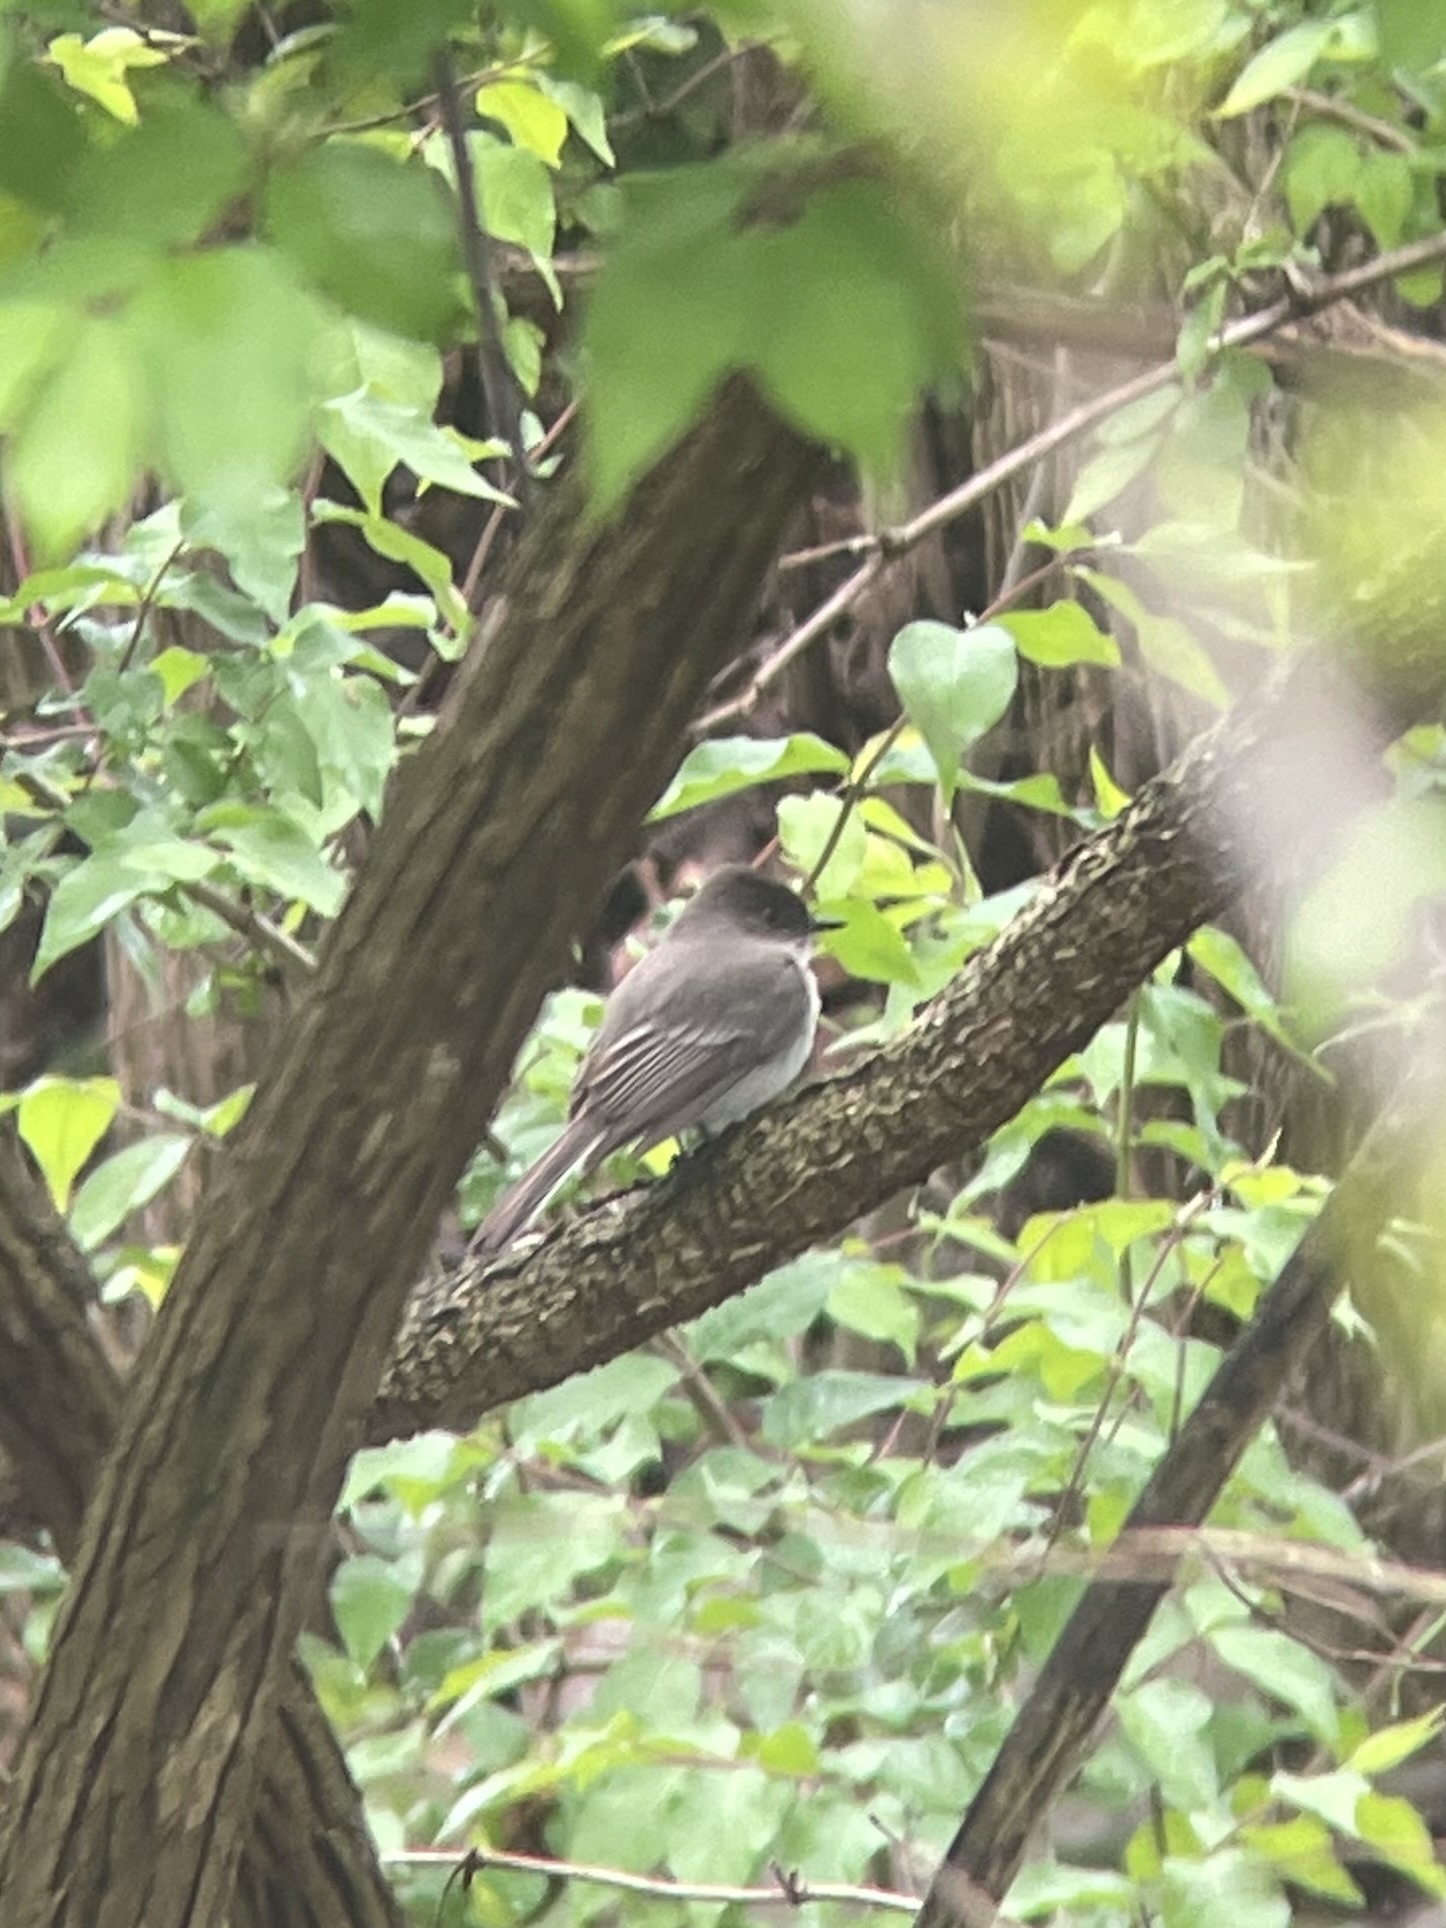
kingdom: Animalia
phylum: Chordata
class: Aves
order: Passeriformes
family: Tyrannidae
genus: Sayornis
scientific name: Sayornis phoebe
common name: Eastern phoebe
